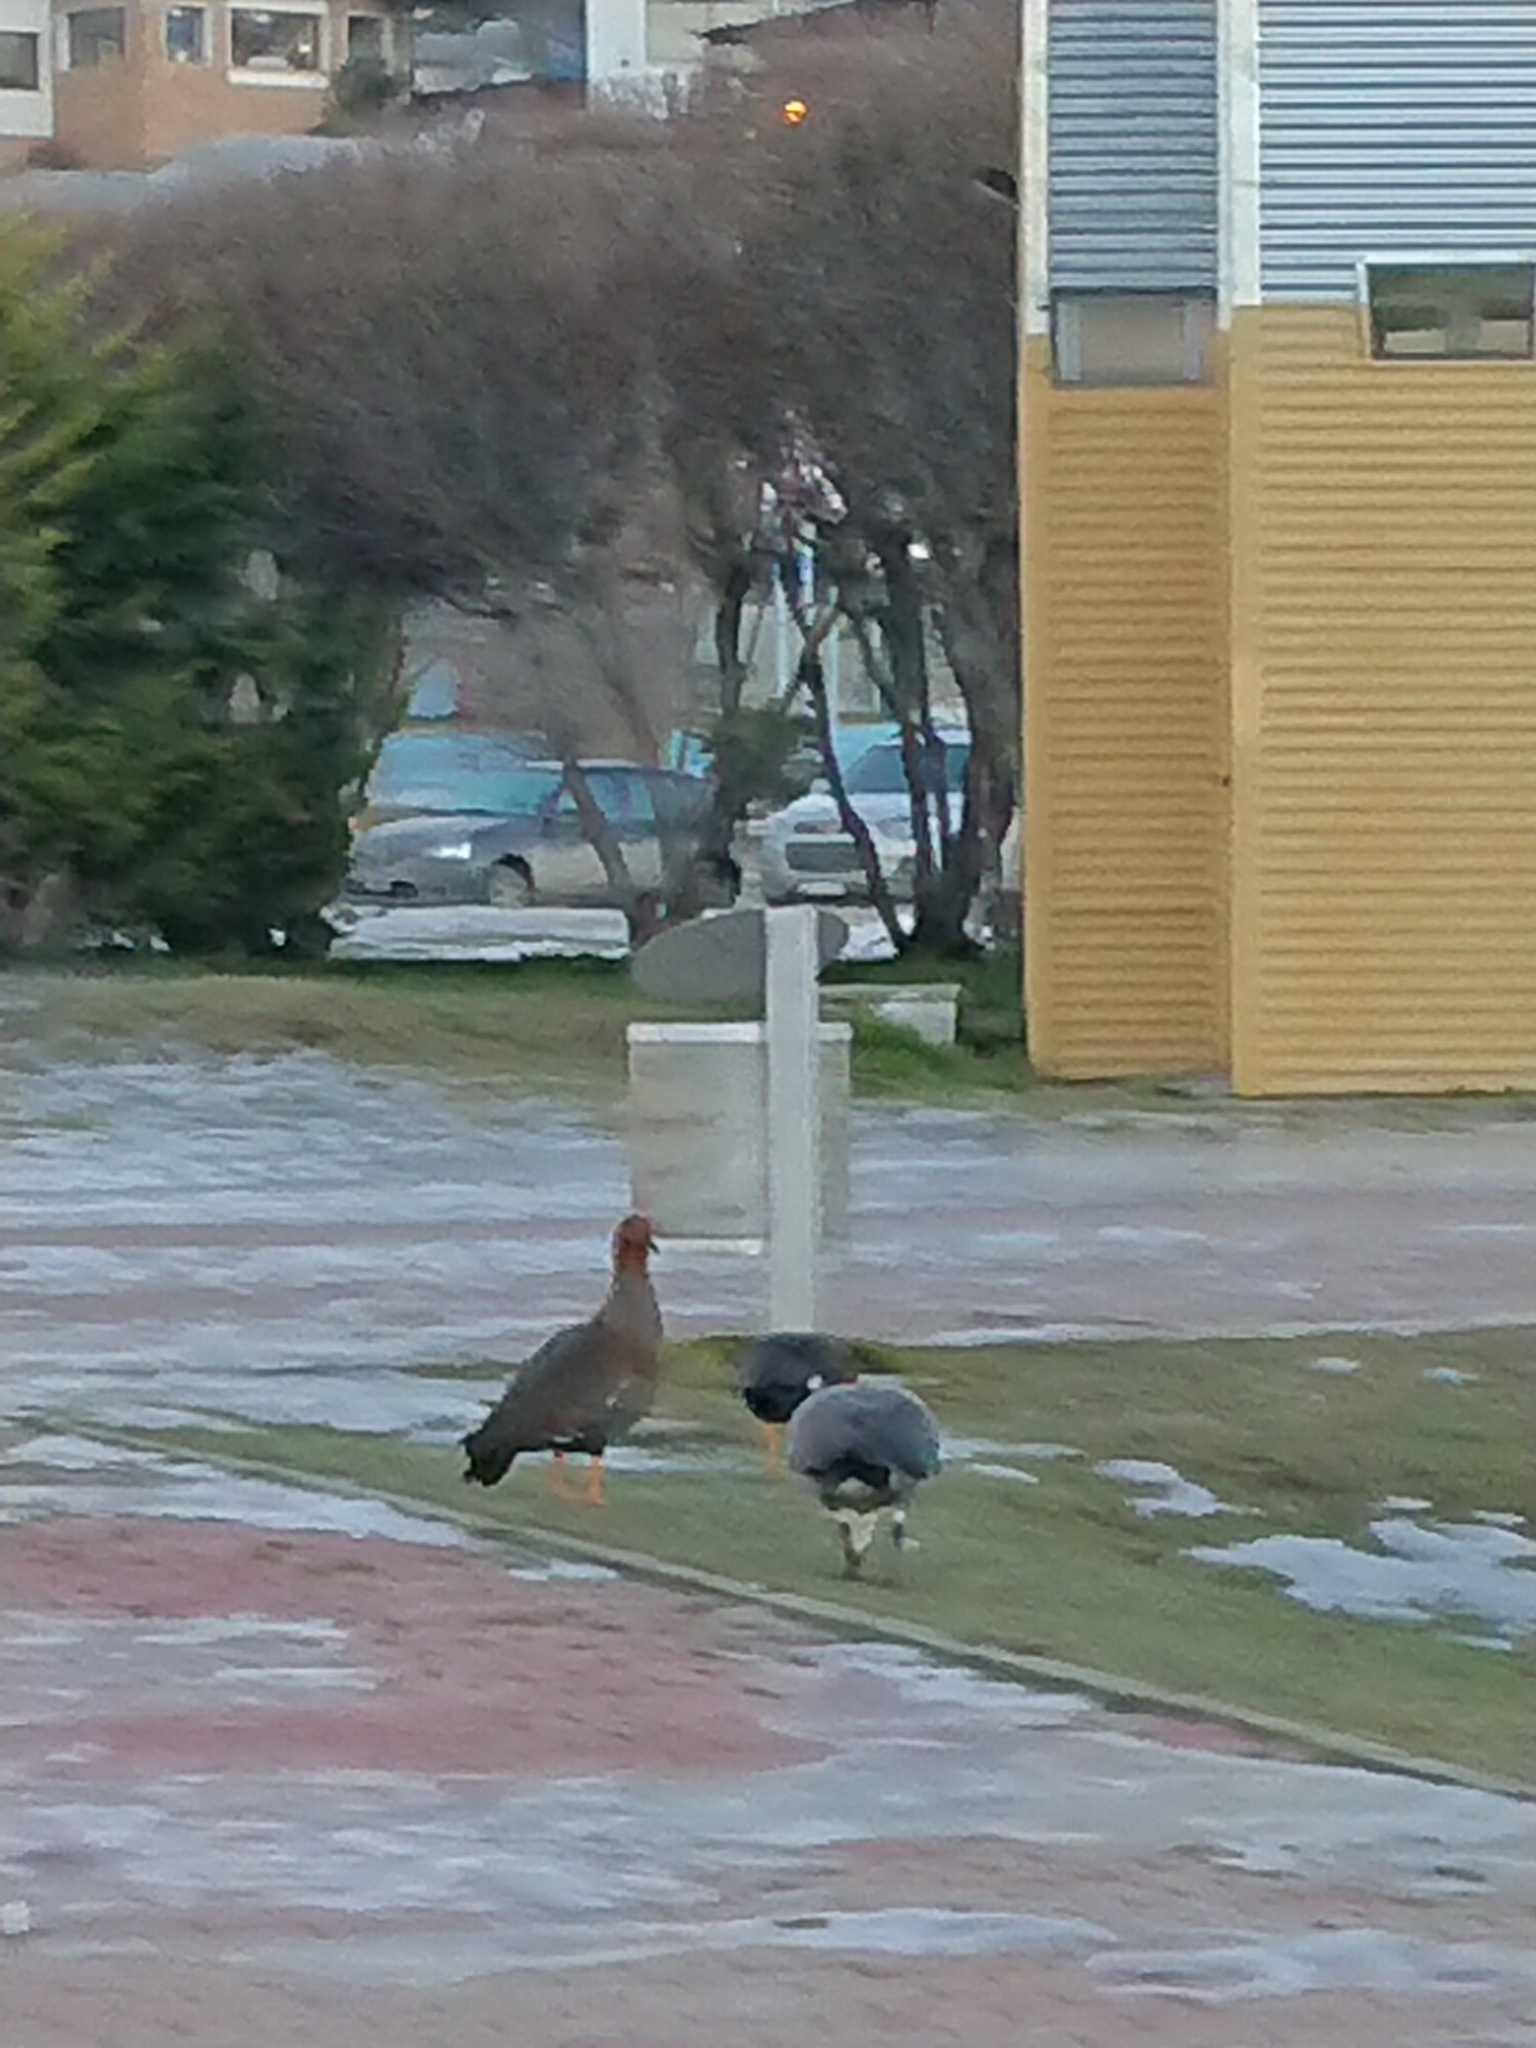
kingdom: Animalia
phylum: Chordata
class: Aves
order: Anseriformes
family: Anatidae
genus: Chloephaga
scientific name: Chloephaga picta
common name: Upland goose
